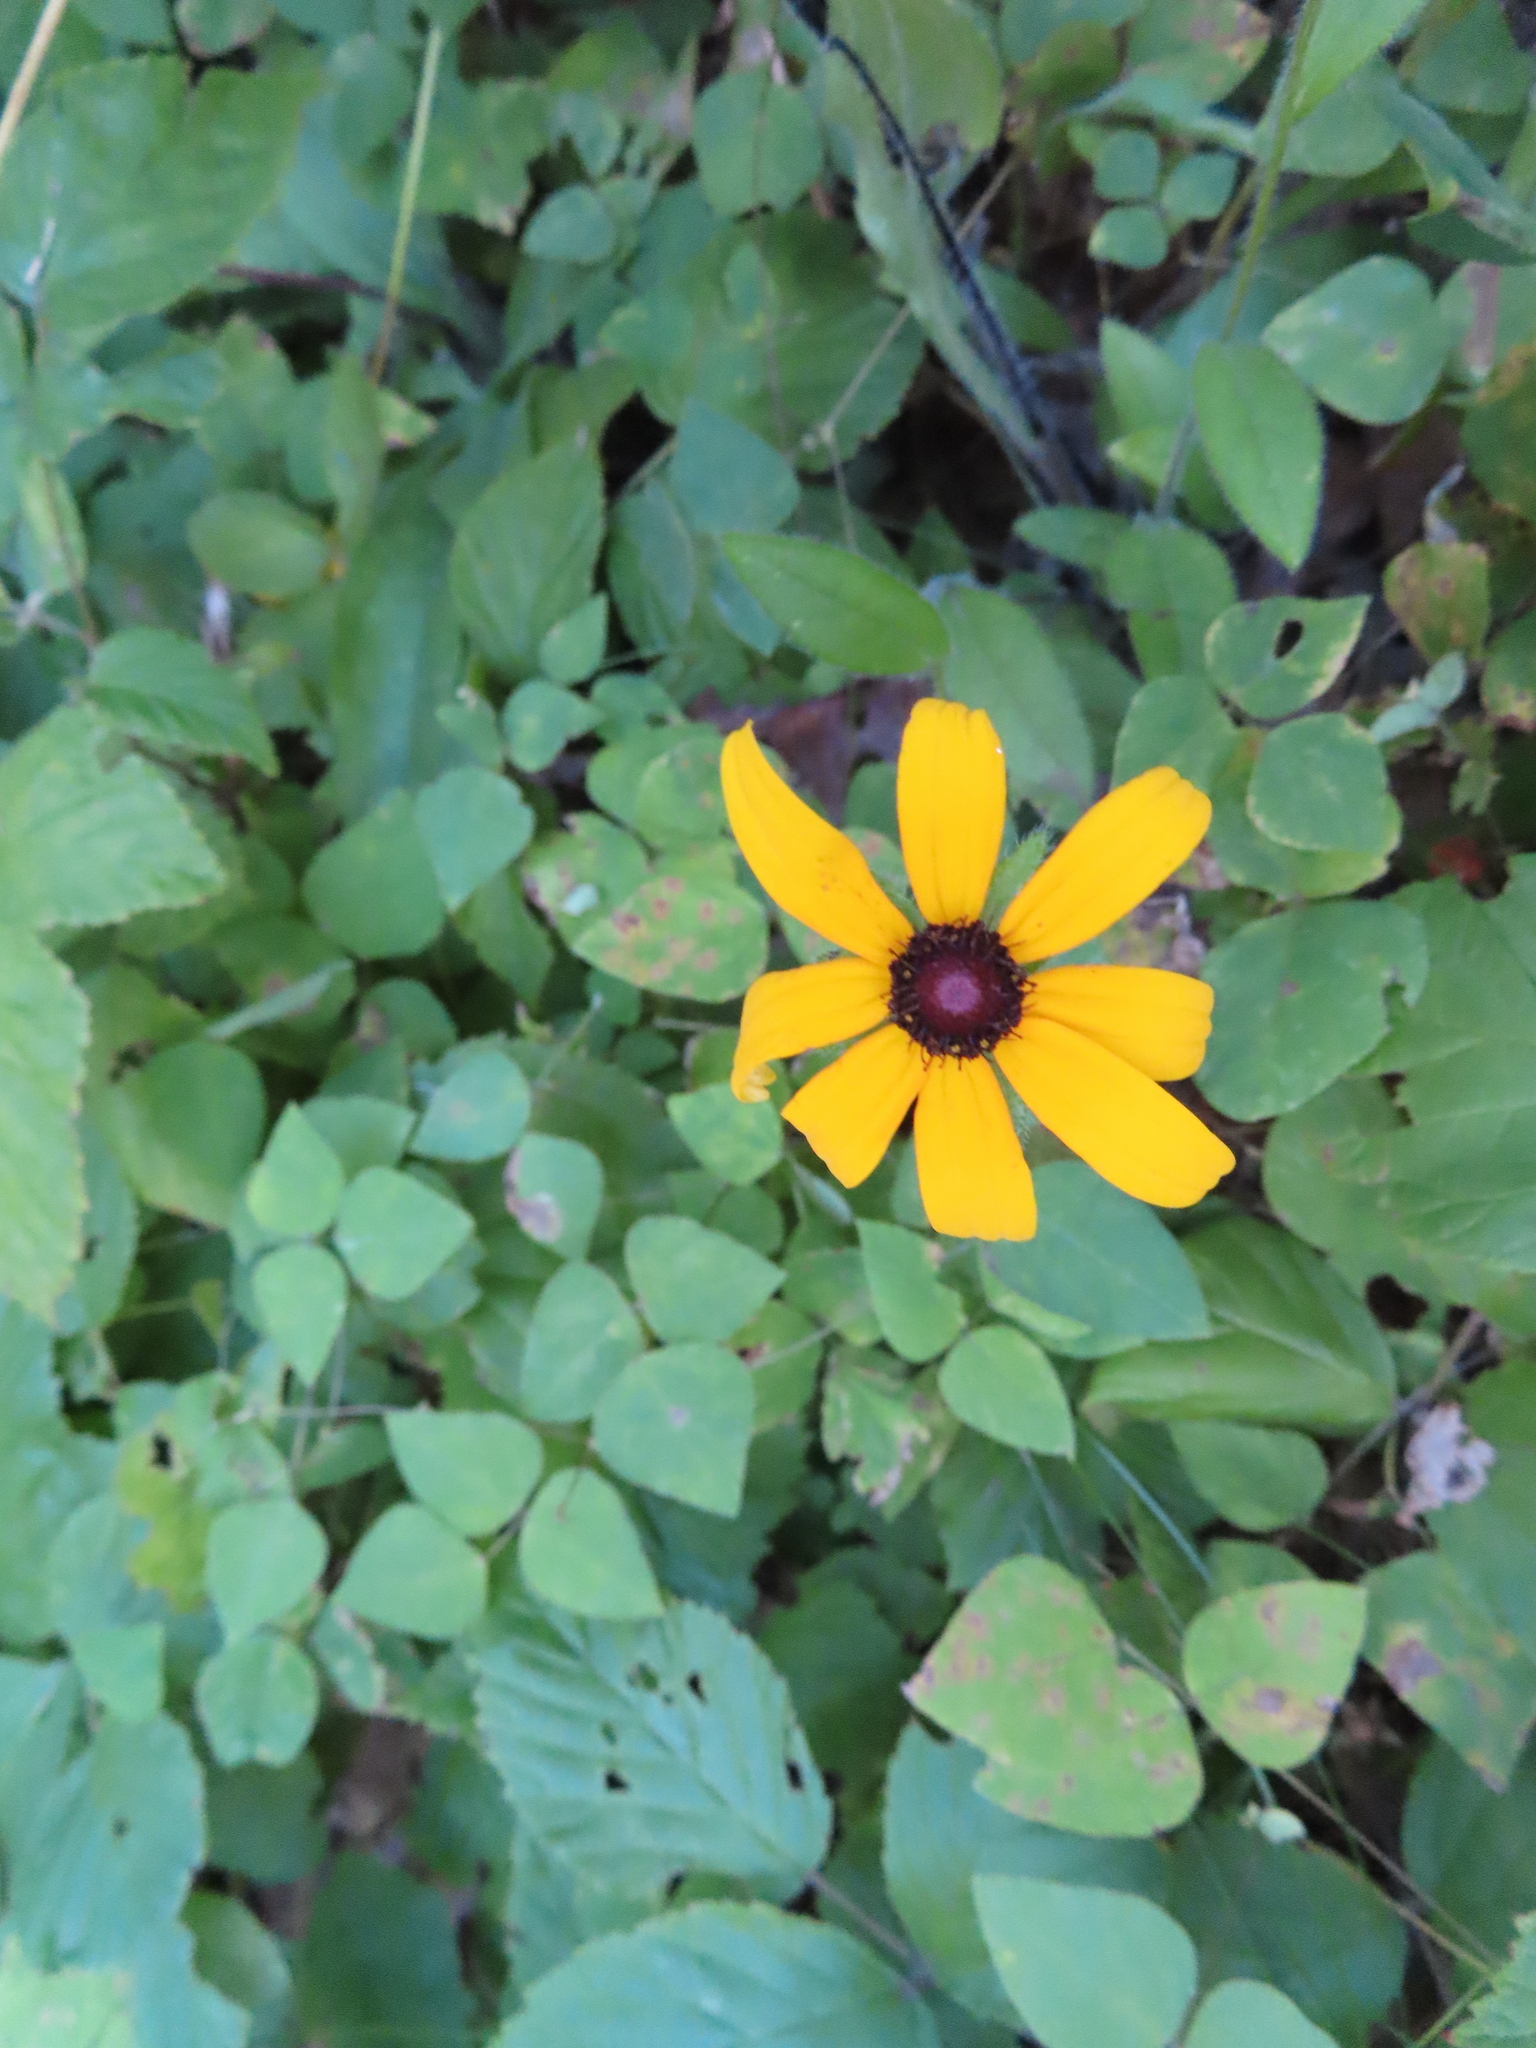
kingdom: Plantae
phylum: Tracheophyta
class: Magnoliopsida
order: Asterales
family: Asteraceae
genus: Rudbeckia
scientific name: Rudbeckia hirta
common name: Black-eyed-susan
